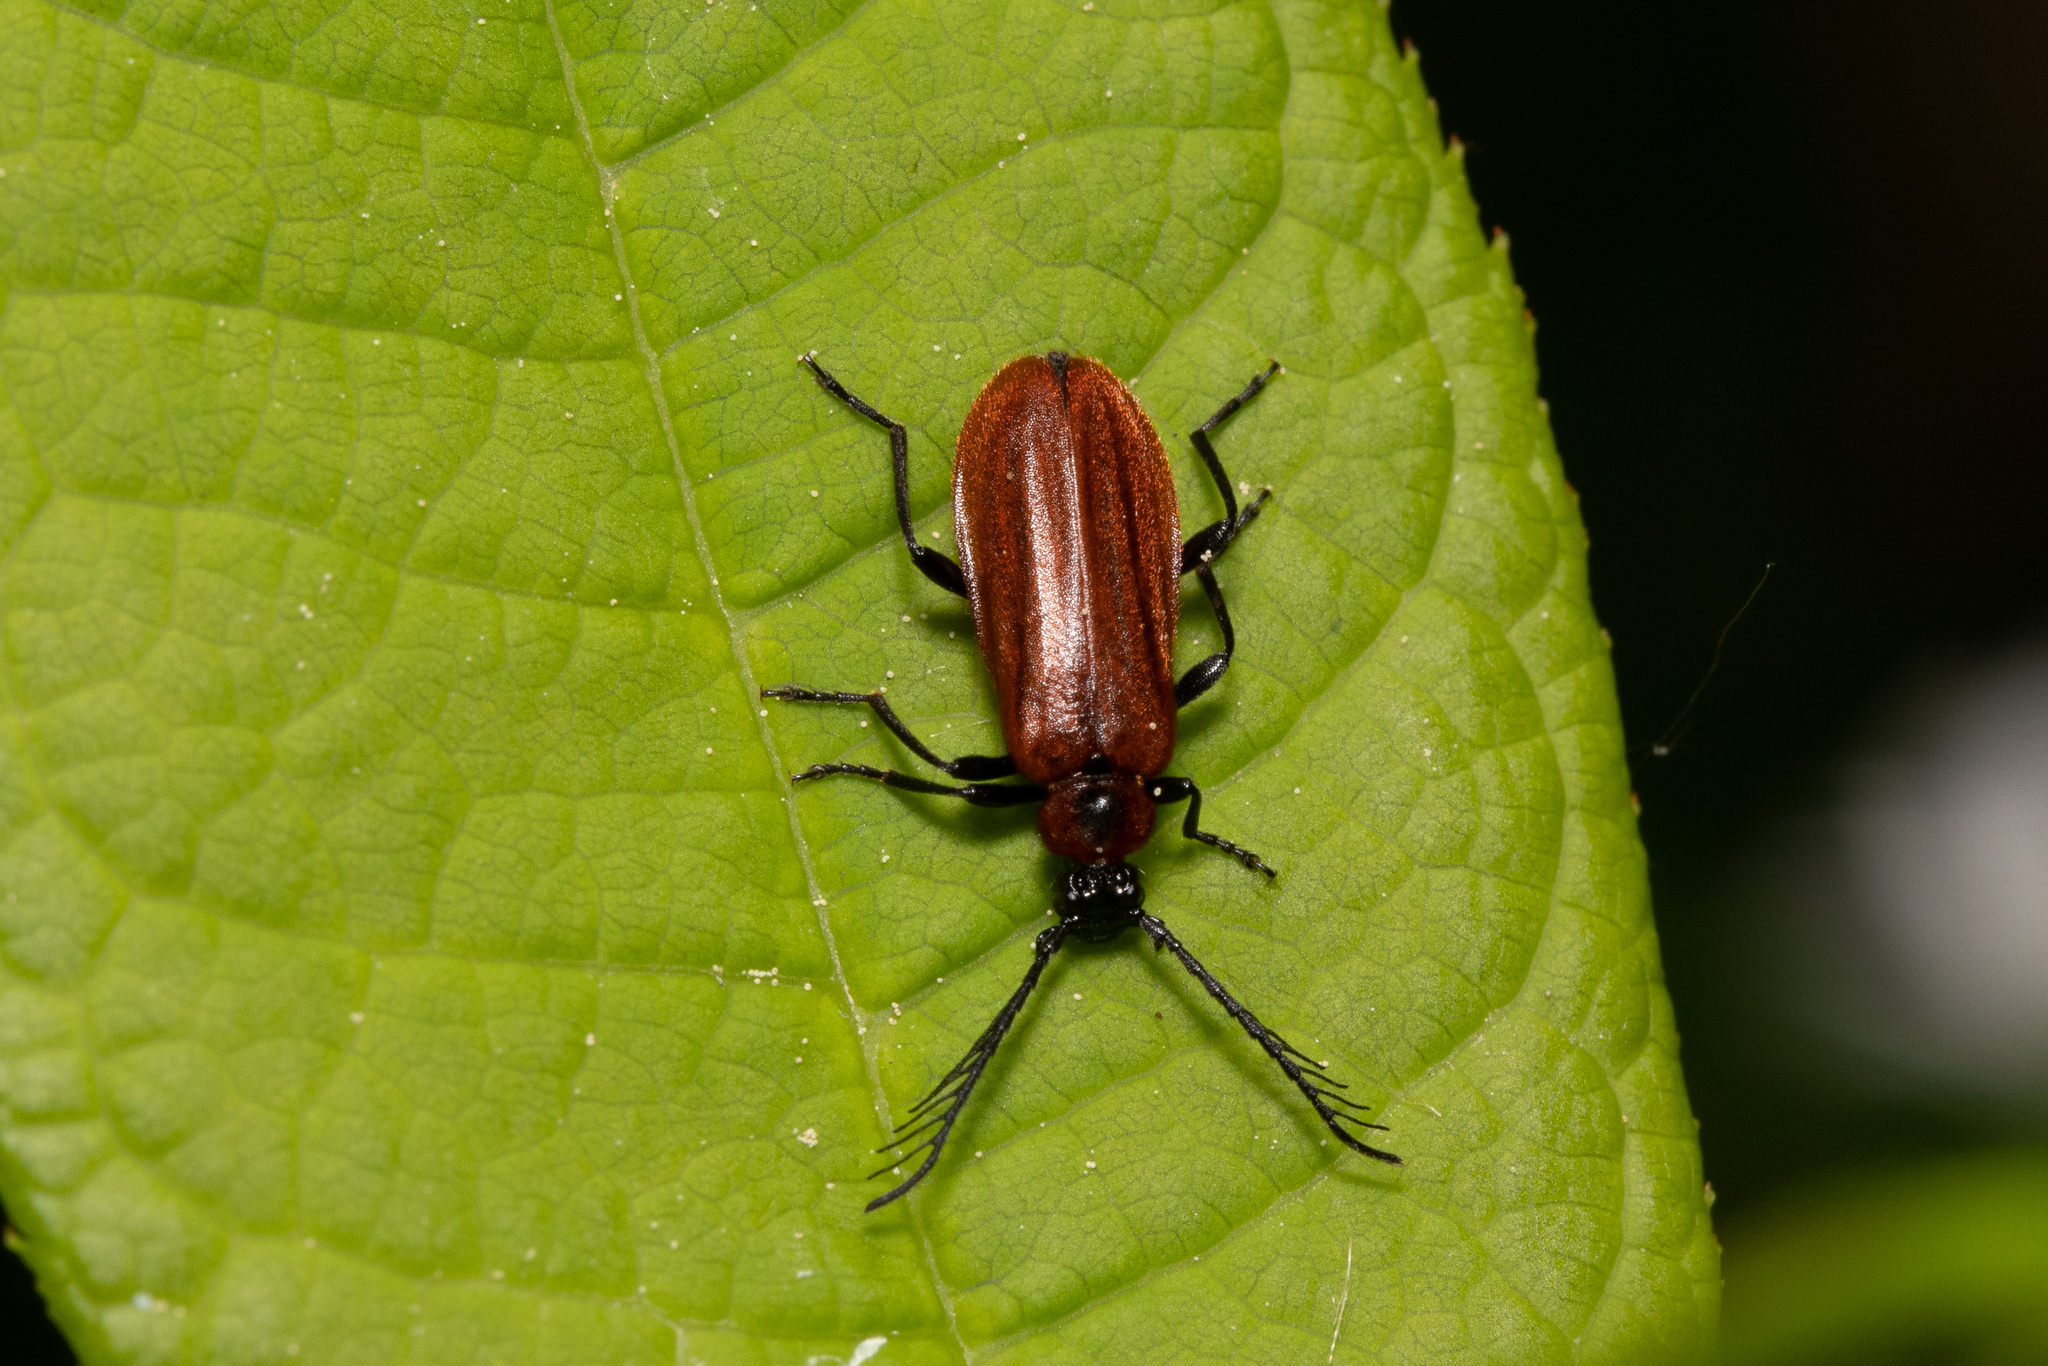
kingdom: Animalia
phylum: Arthropoda
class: Insecta
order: Coleoptera
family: Pyrochroidae
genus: Schizotus
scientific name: Schizotus pectinicornis
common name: Scarce cardinal beetle
